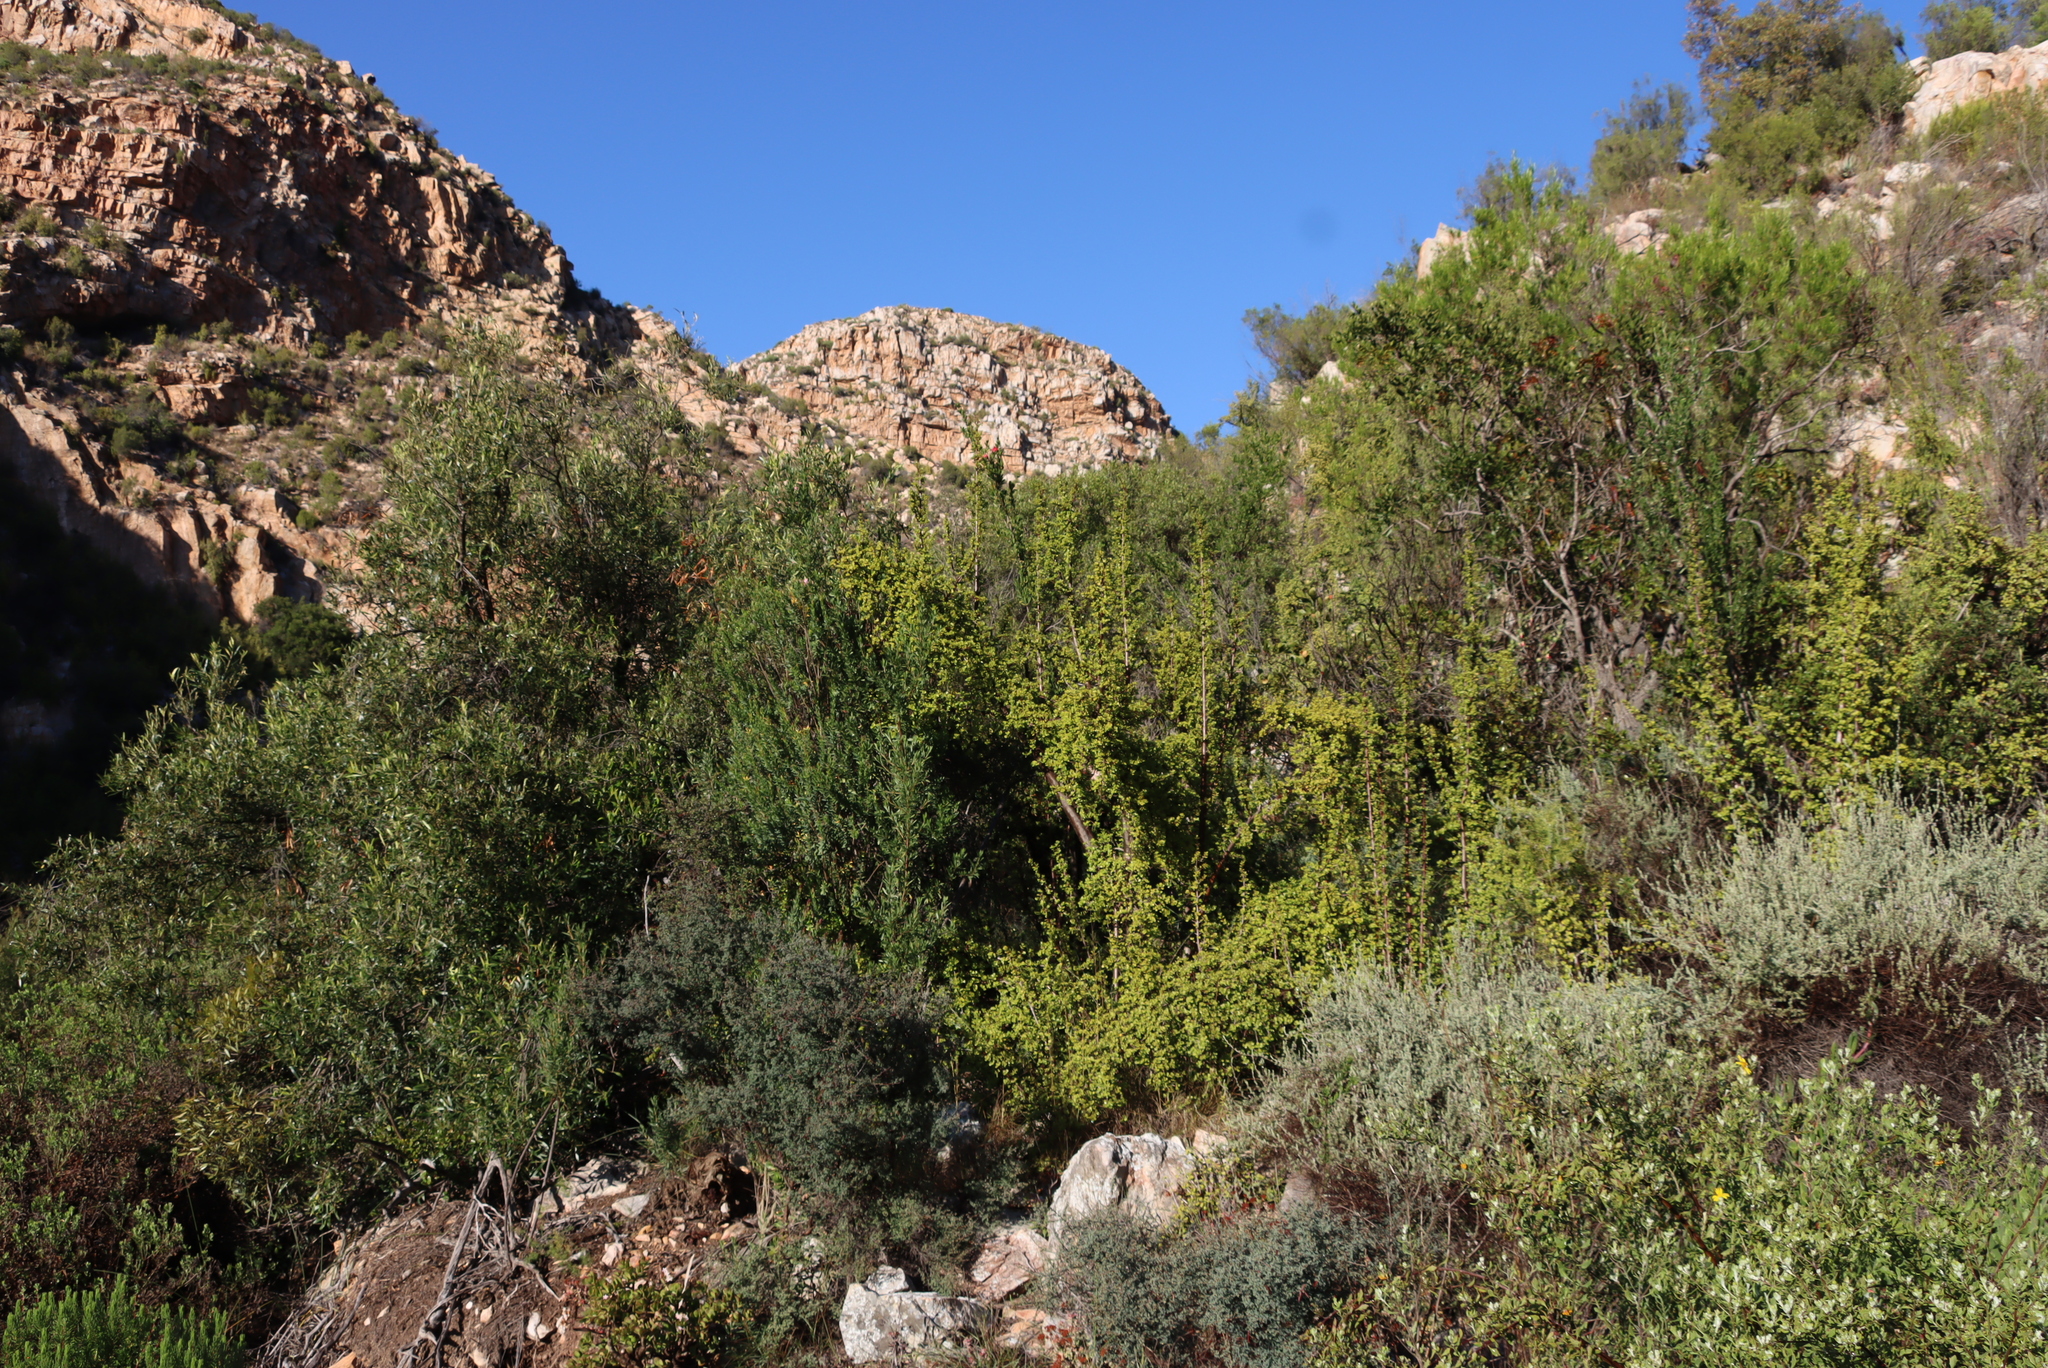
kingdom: Plantae
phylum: Tracheophyta
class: Magnoliopsida
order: Caryophyllales
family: Didiereaceae
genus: Portulacaria
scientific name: Portulacaria afra
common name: Elephant-bush
